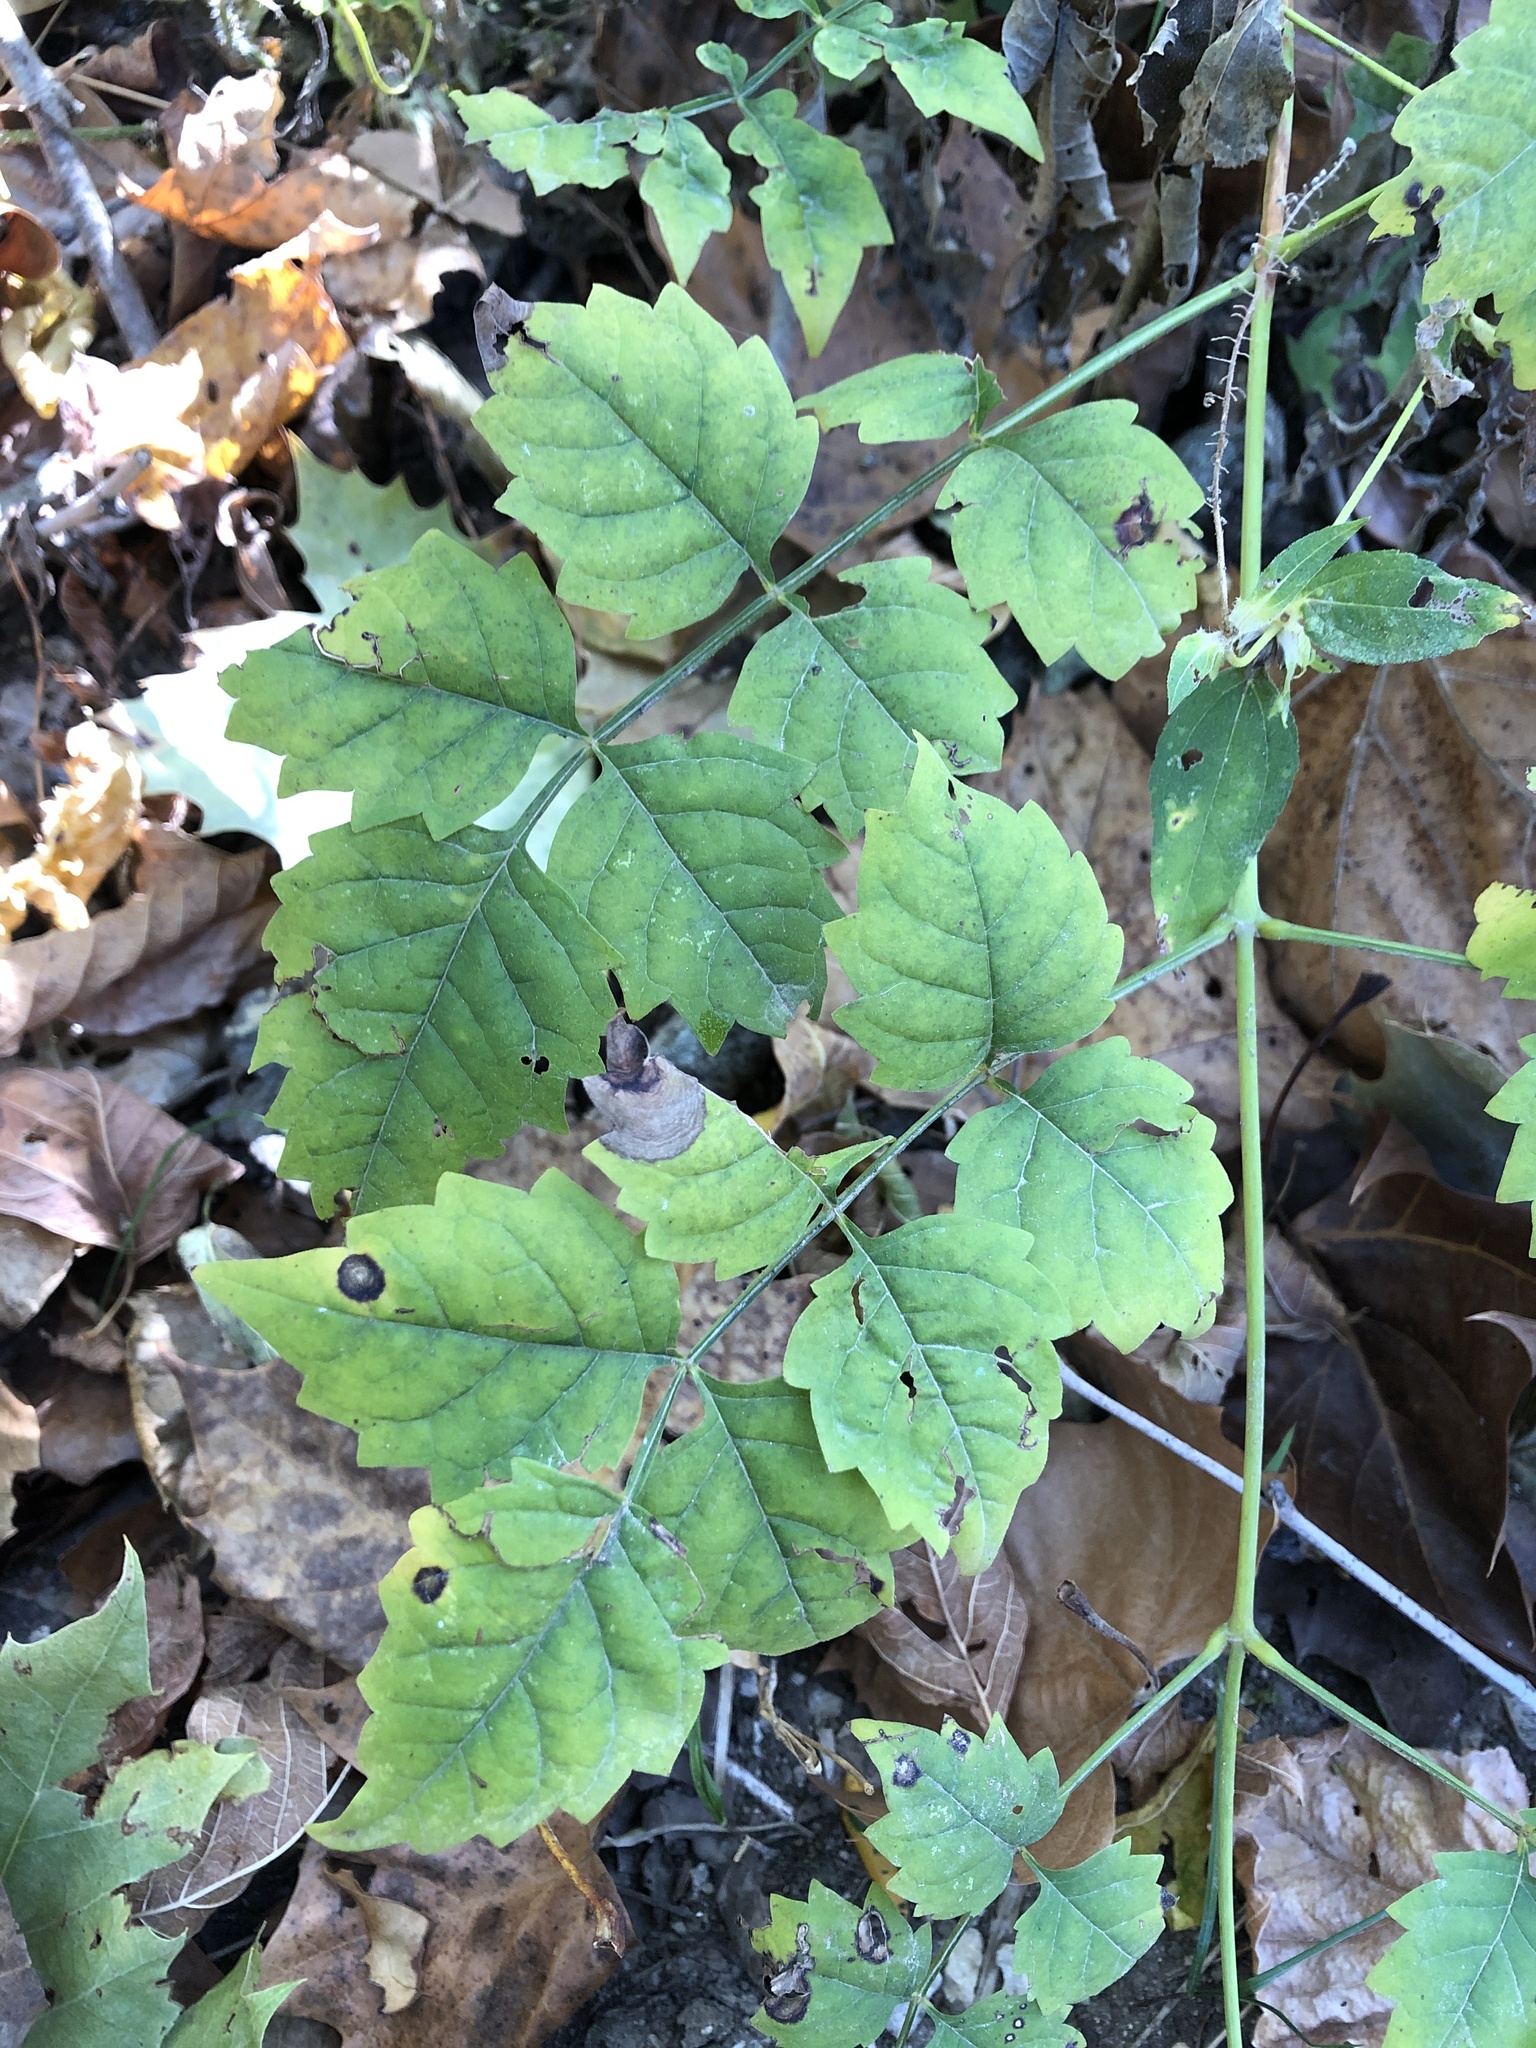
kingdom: Plantae
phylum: Tracheophyta
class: Magnoliopsida
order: Lamiales
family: Bignoniaceae
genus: Campsis
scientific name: Campsis radicans
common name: Trumpet-creeper
